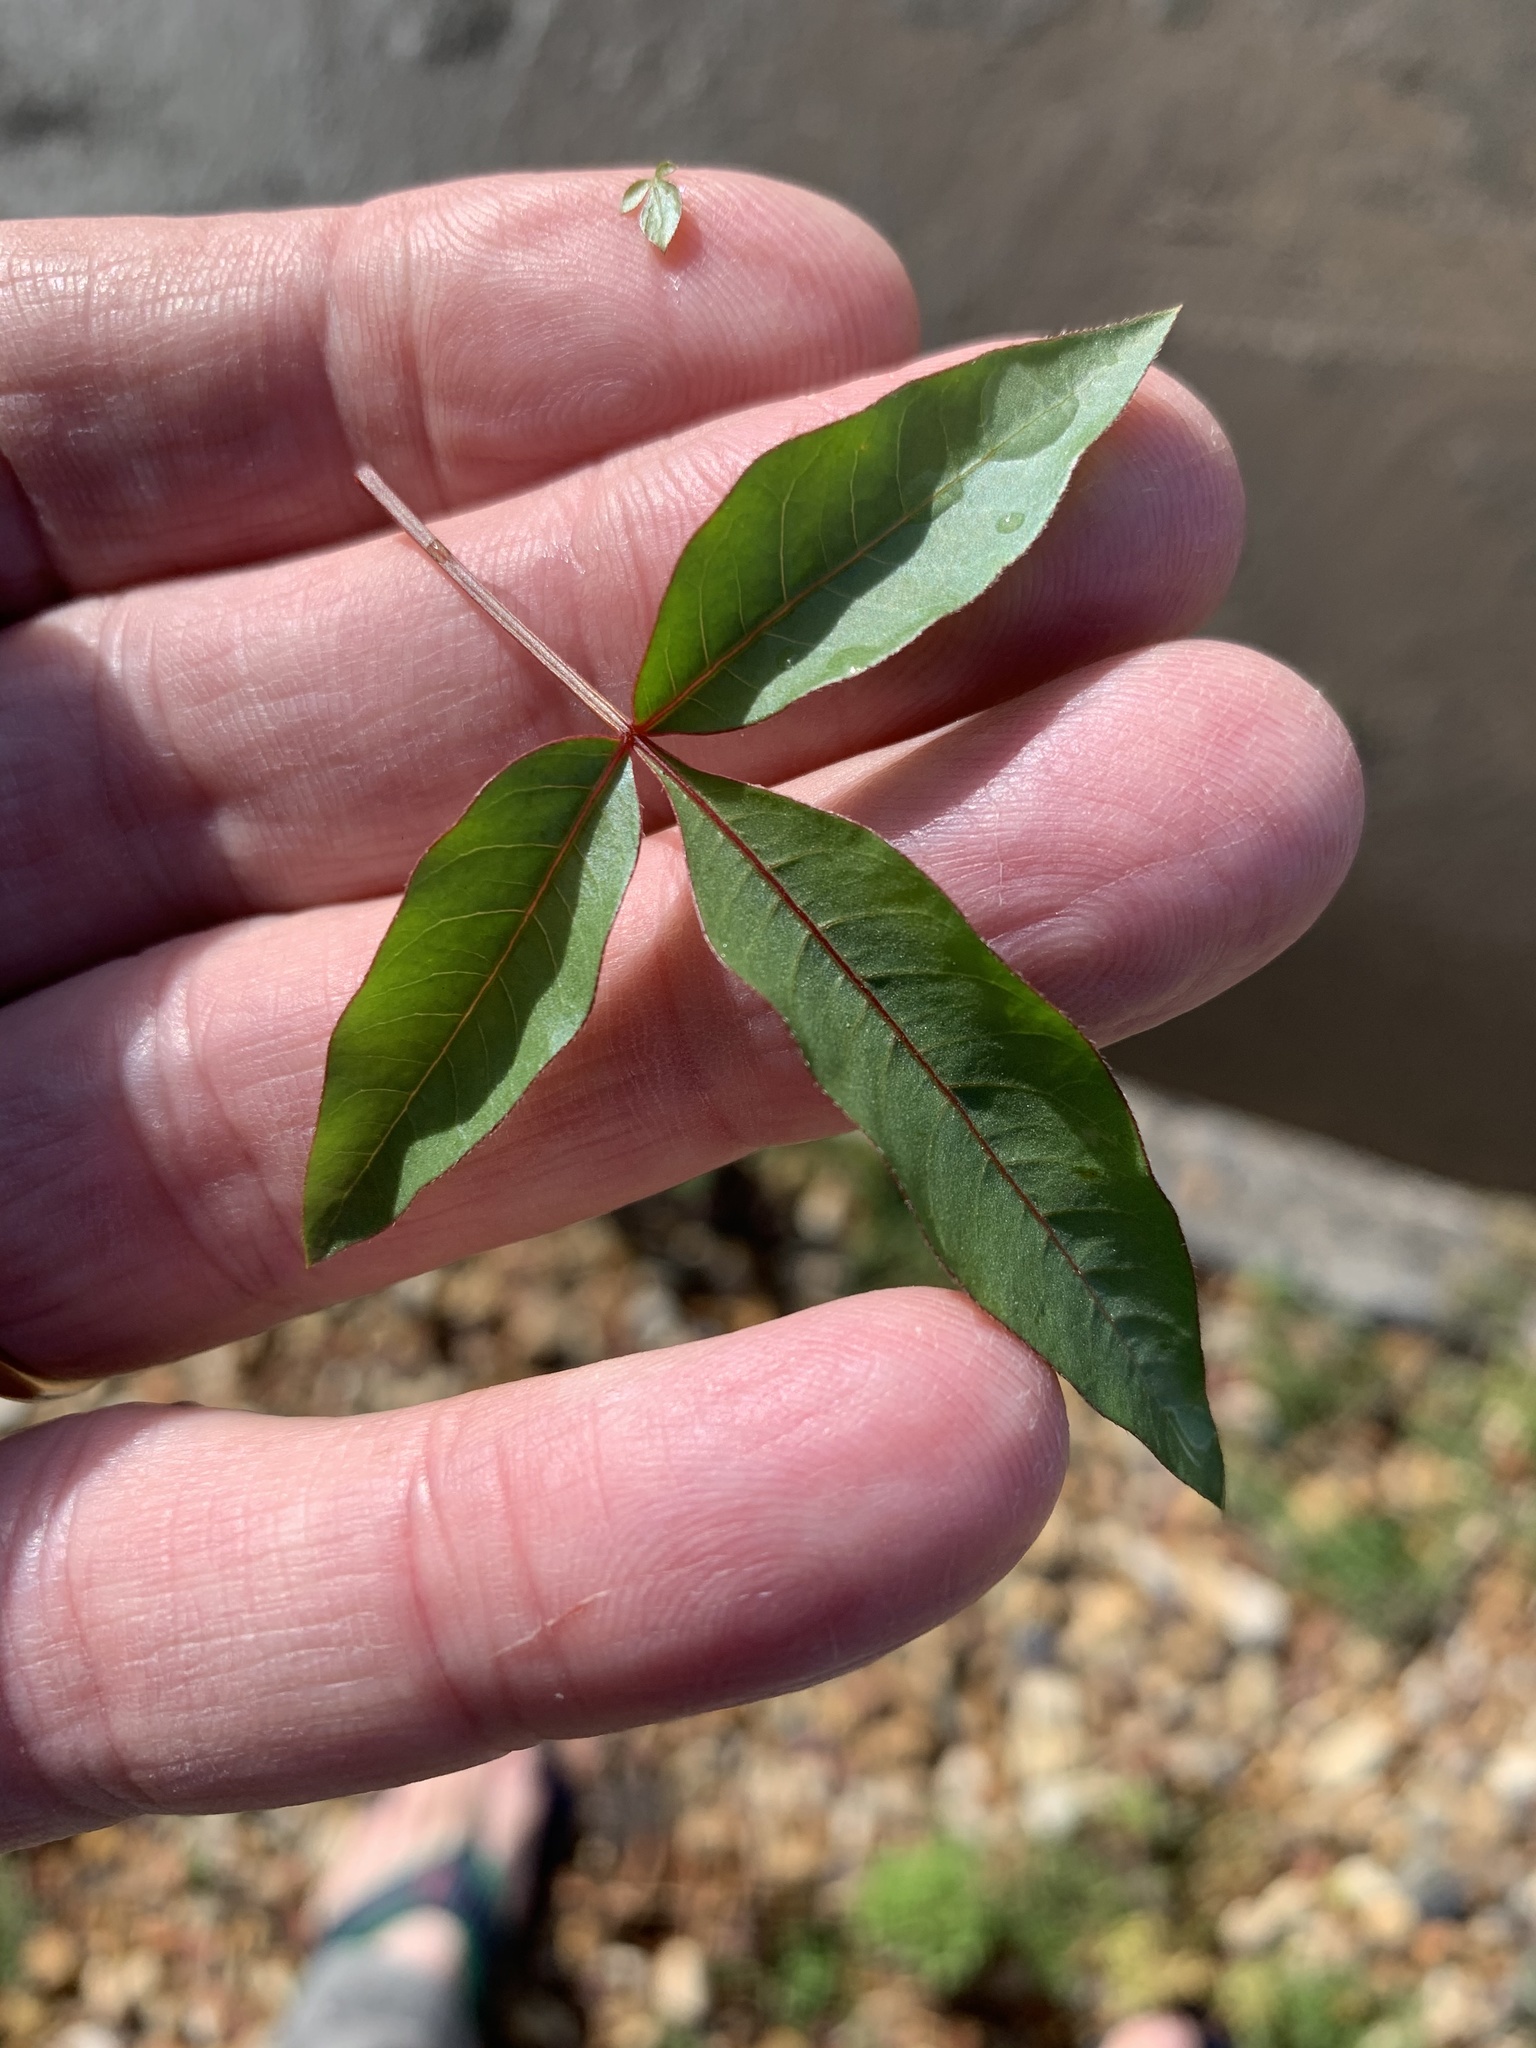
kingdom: Plantae
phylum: Tracheophyta
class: Magnoliopsida
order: Sapindales
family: Anacardiaceae
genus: Searsia
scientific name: Searsia pendulina
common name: White karee
